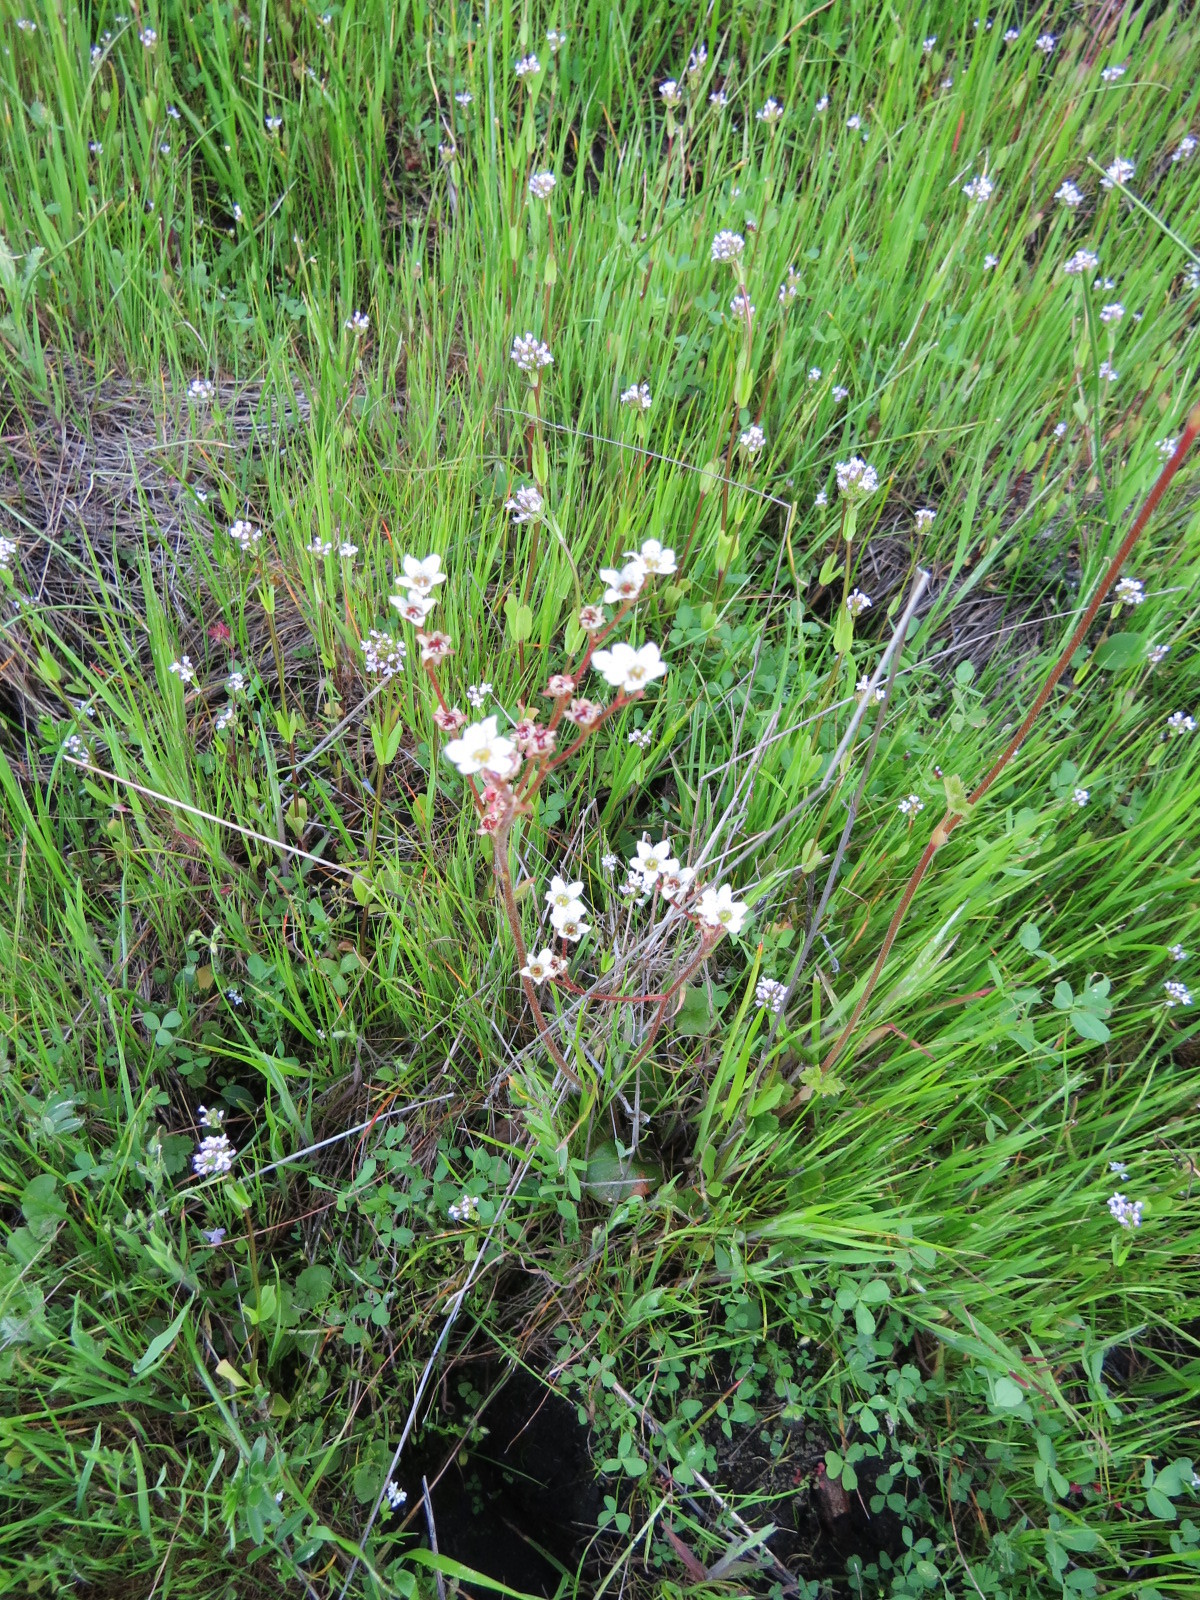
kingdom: Plantae
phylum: Tracheophyta
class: Magnoliopsida
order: Saxifragales
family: Saxifragaceae
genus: Micranthes
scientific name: Micranthes californica
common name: California saxifrage
